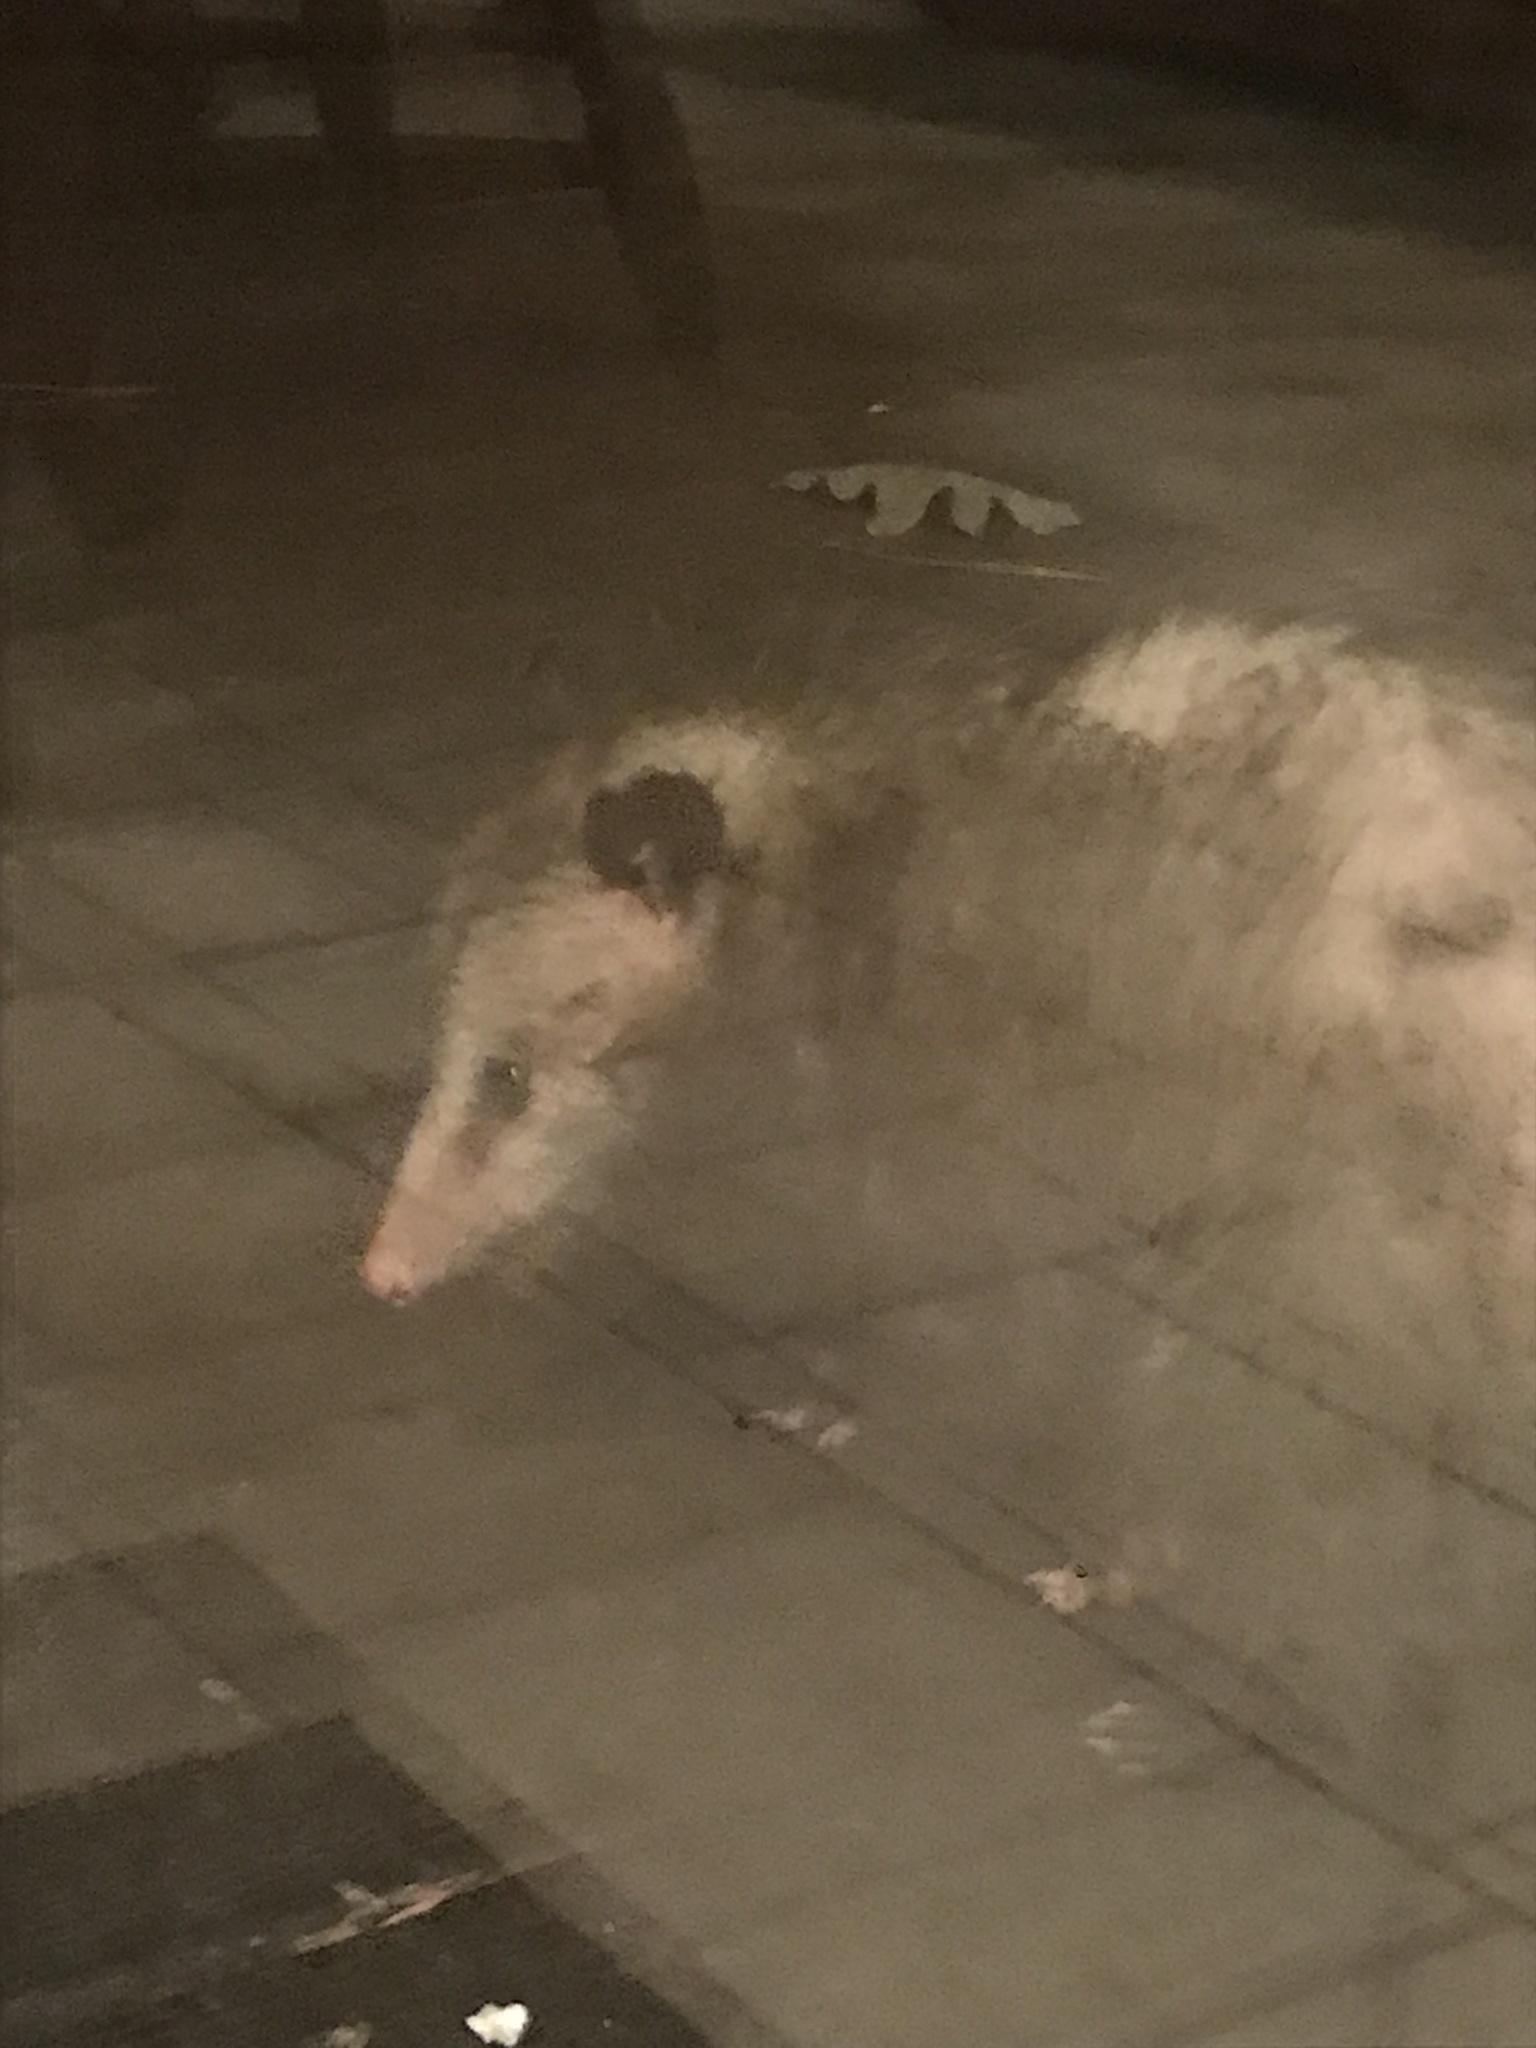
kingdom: Animalia
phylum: Chordata
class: Mammalia
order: Didelphimorphia
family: Didelphidae
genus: Didelphis
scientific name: Didelphis virginiana
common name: Virginia opossum
